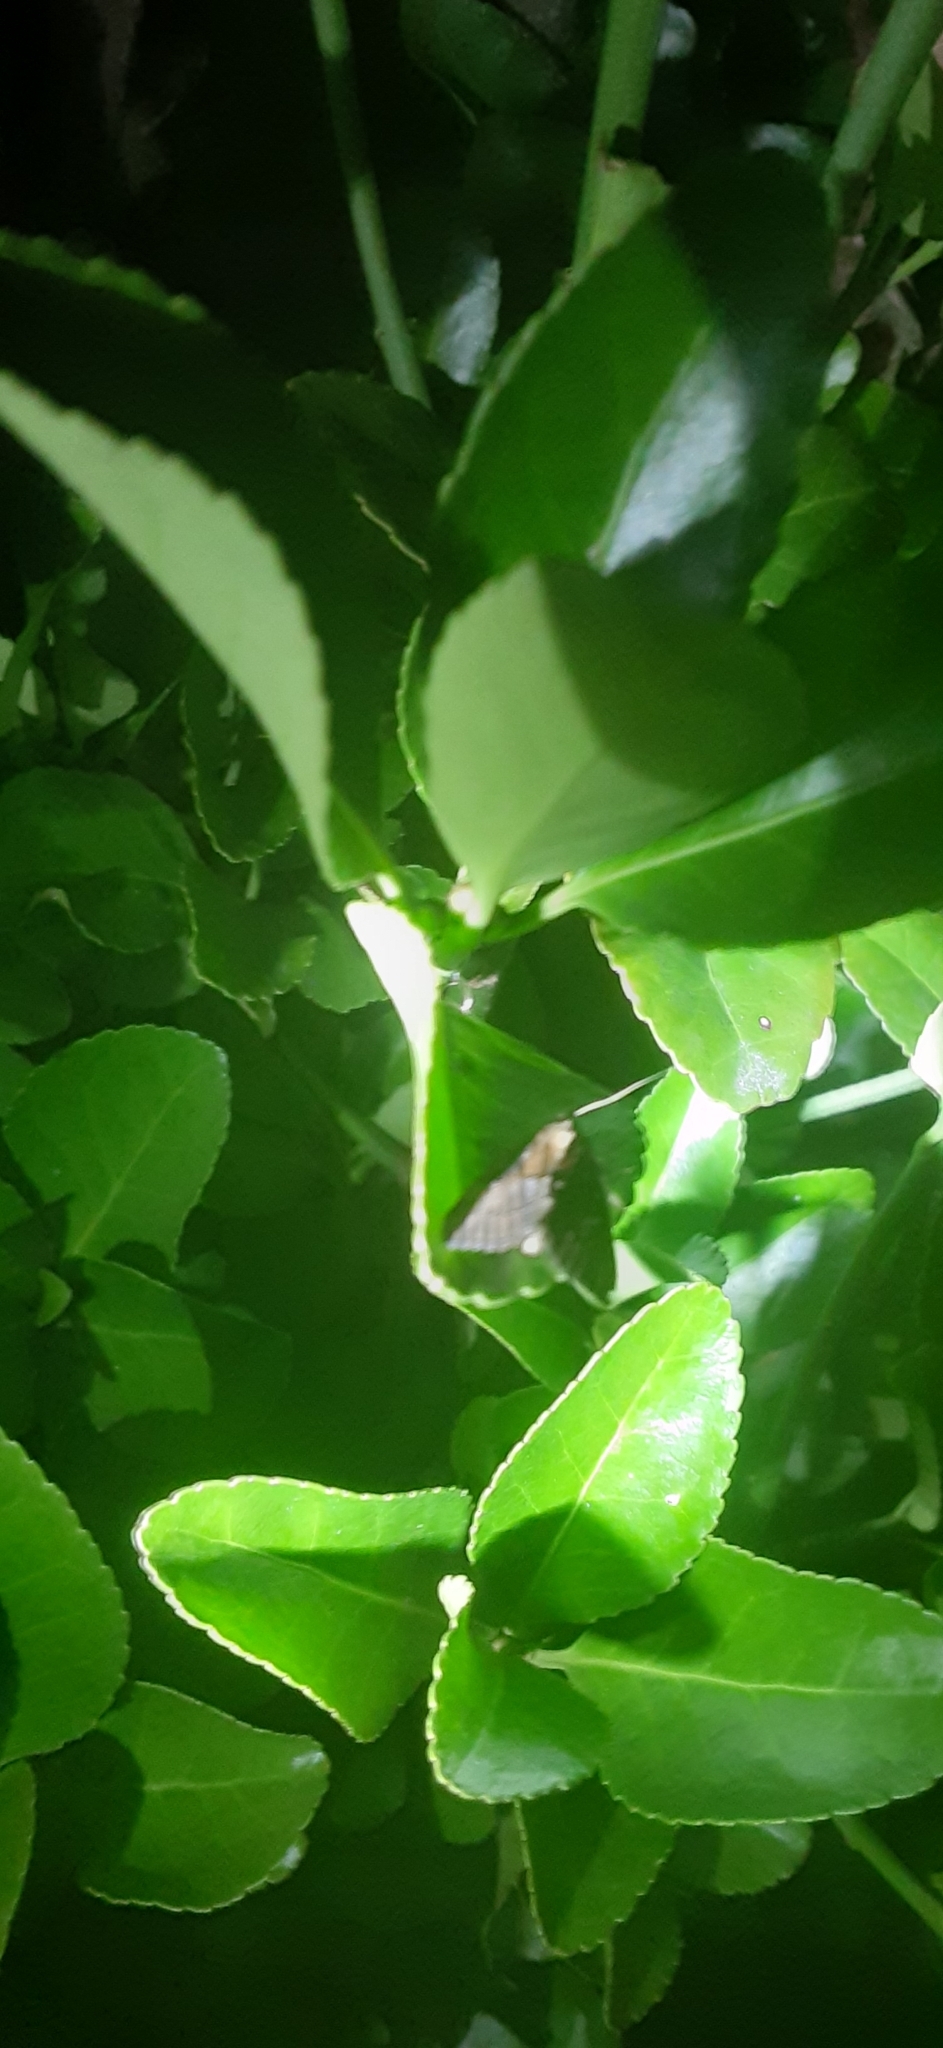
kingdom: Animalia
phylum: Arthropoda
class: Insecta
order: Lepidoptera
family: Erebidae
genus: Hypena
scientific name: Hypena scabra
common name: Green cloverworm
